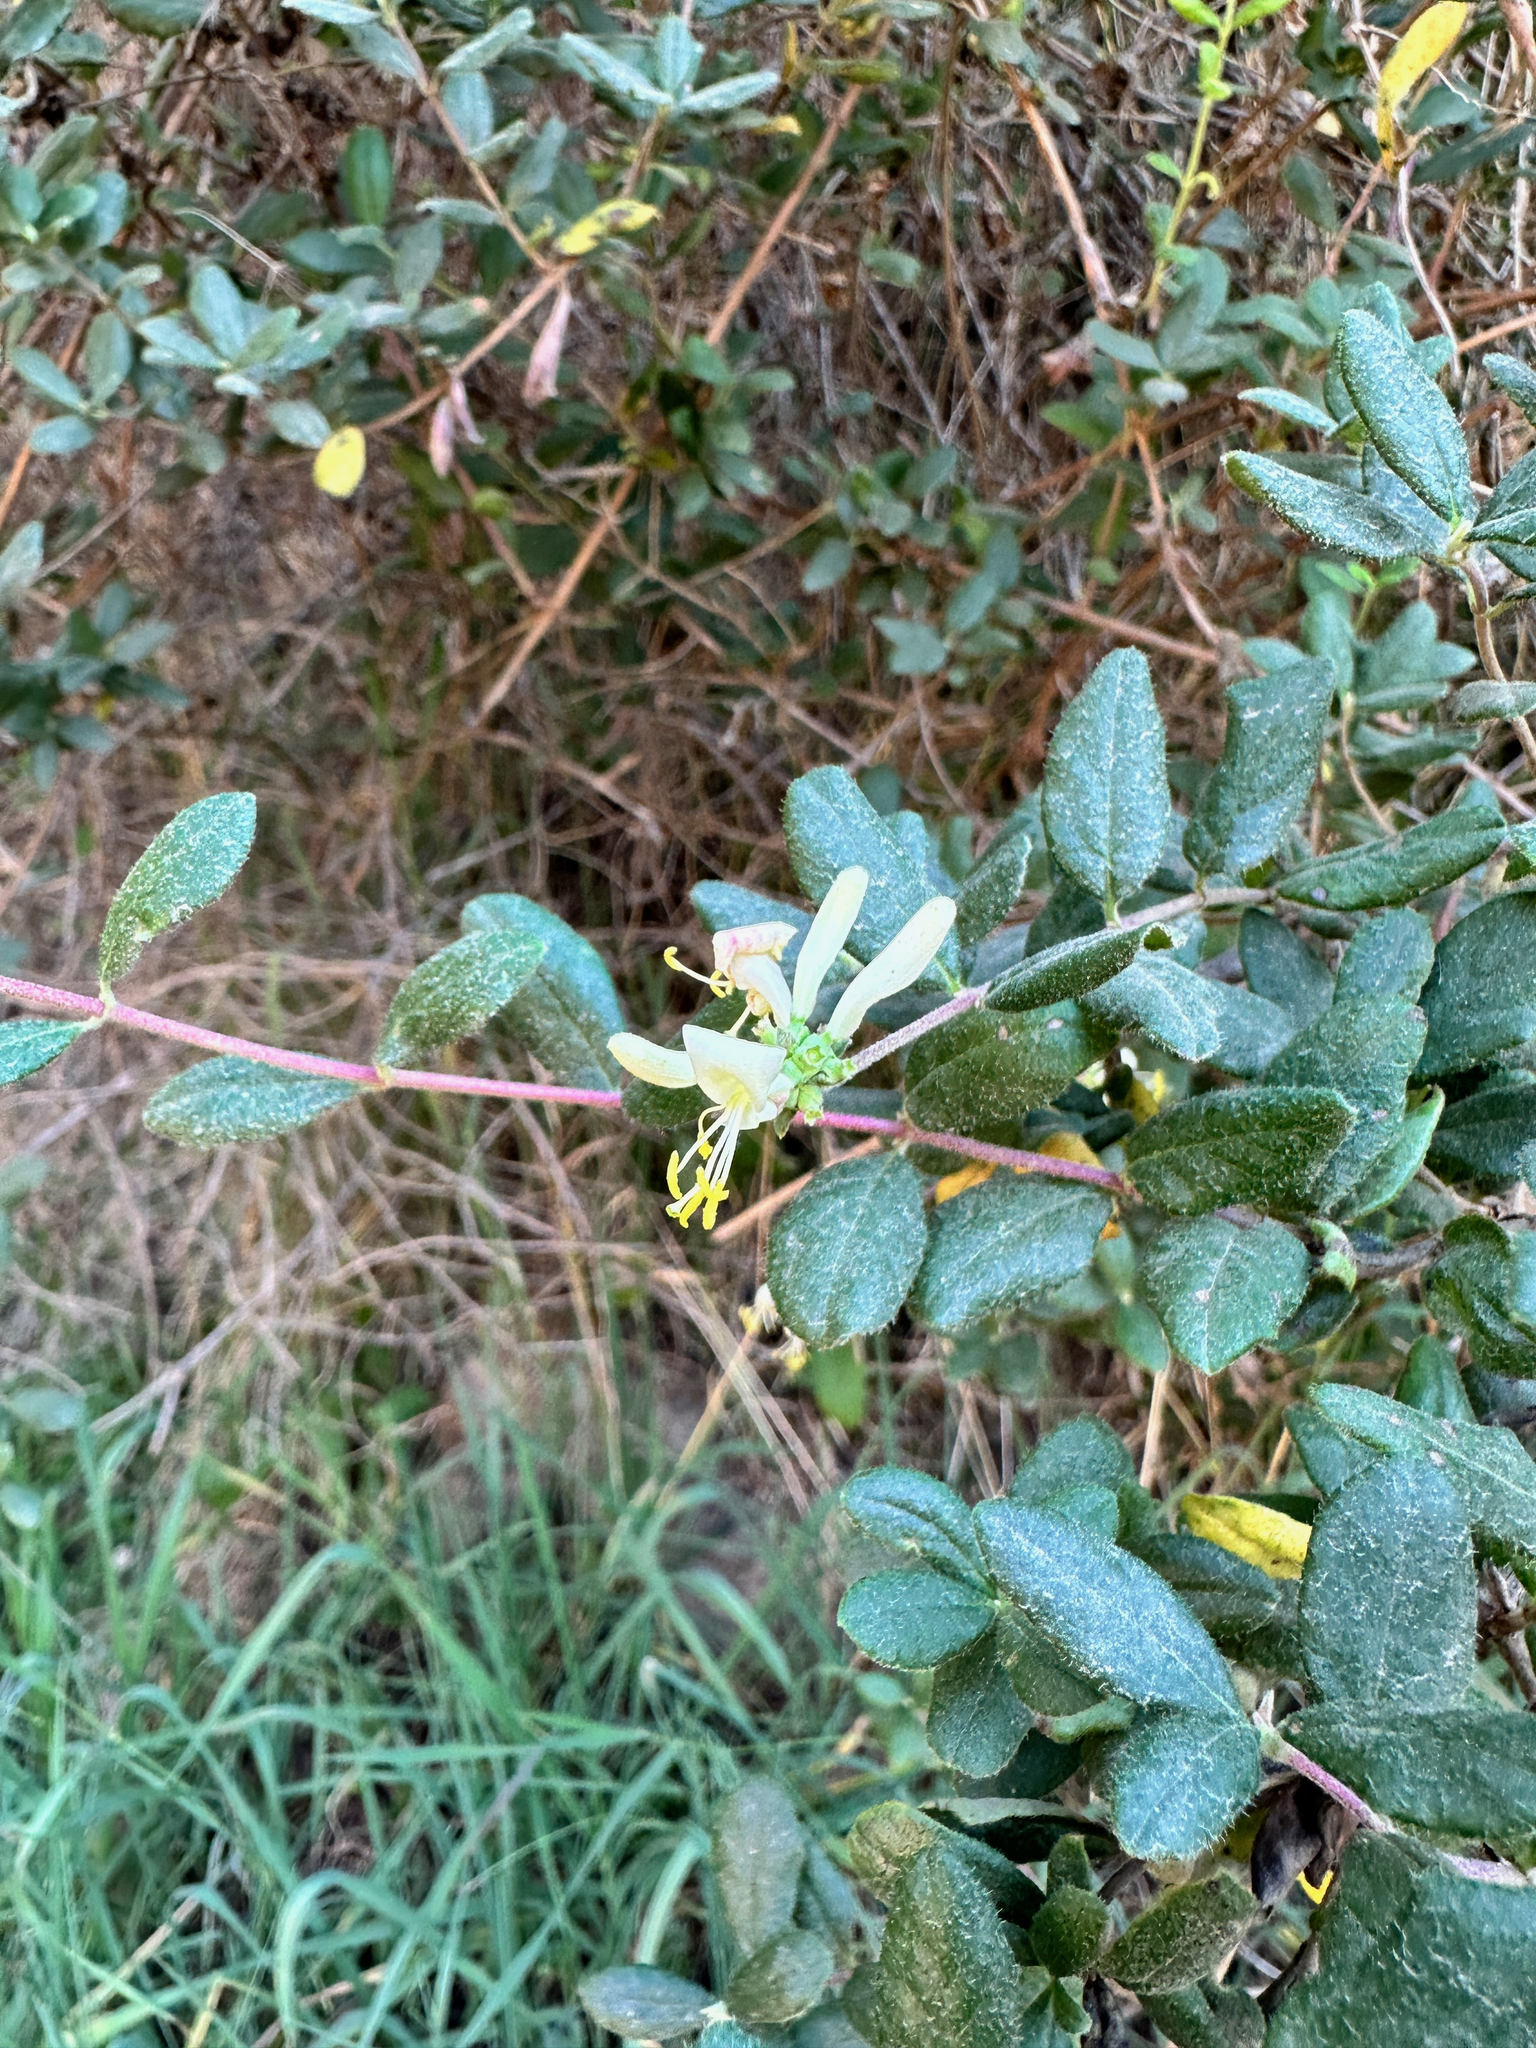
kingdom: Plantae
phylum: Tracheophyta
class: Magnoliopsida
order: Dipsacales
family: Caprifoliaceae
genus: Lonicera
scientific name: Lonicera subspicata
